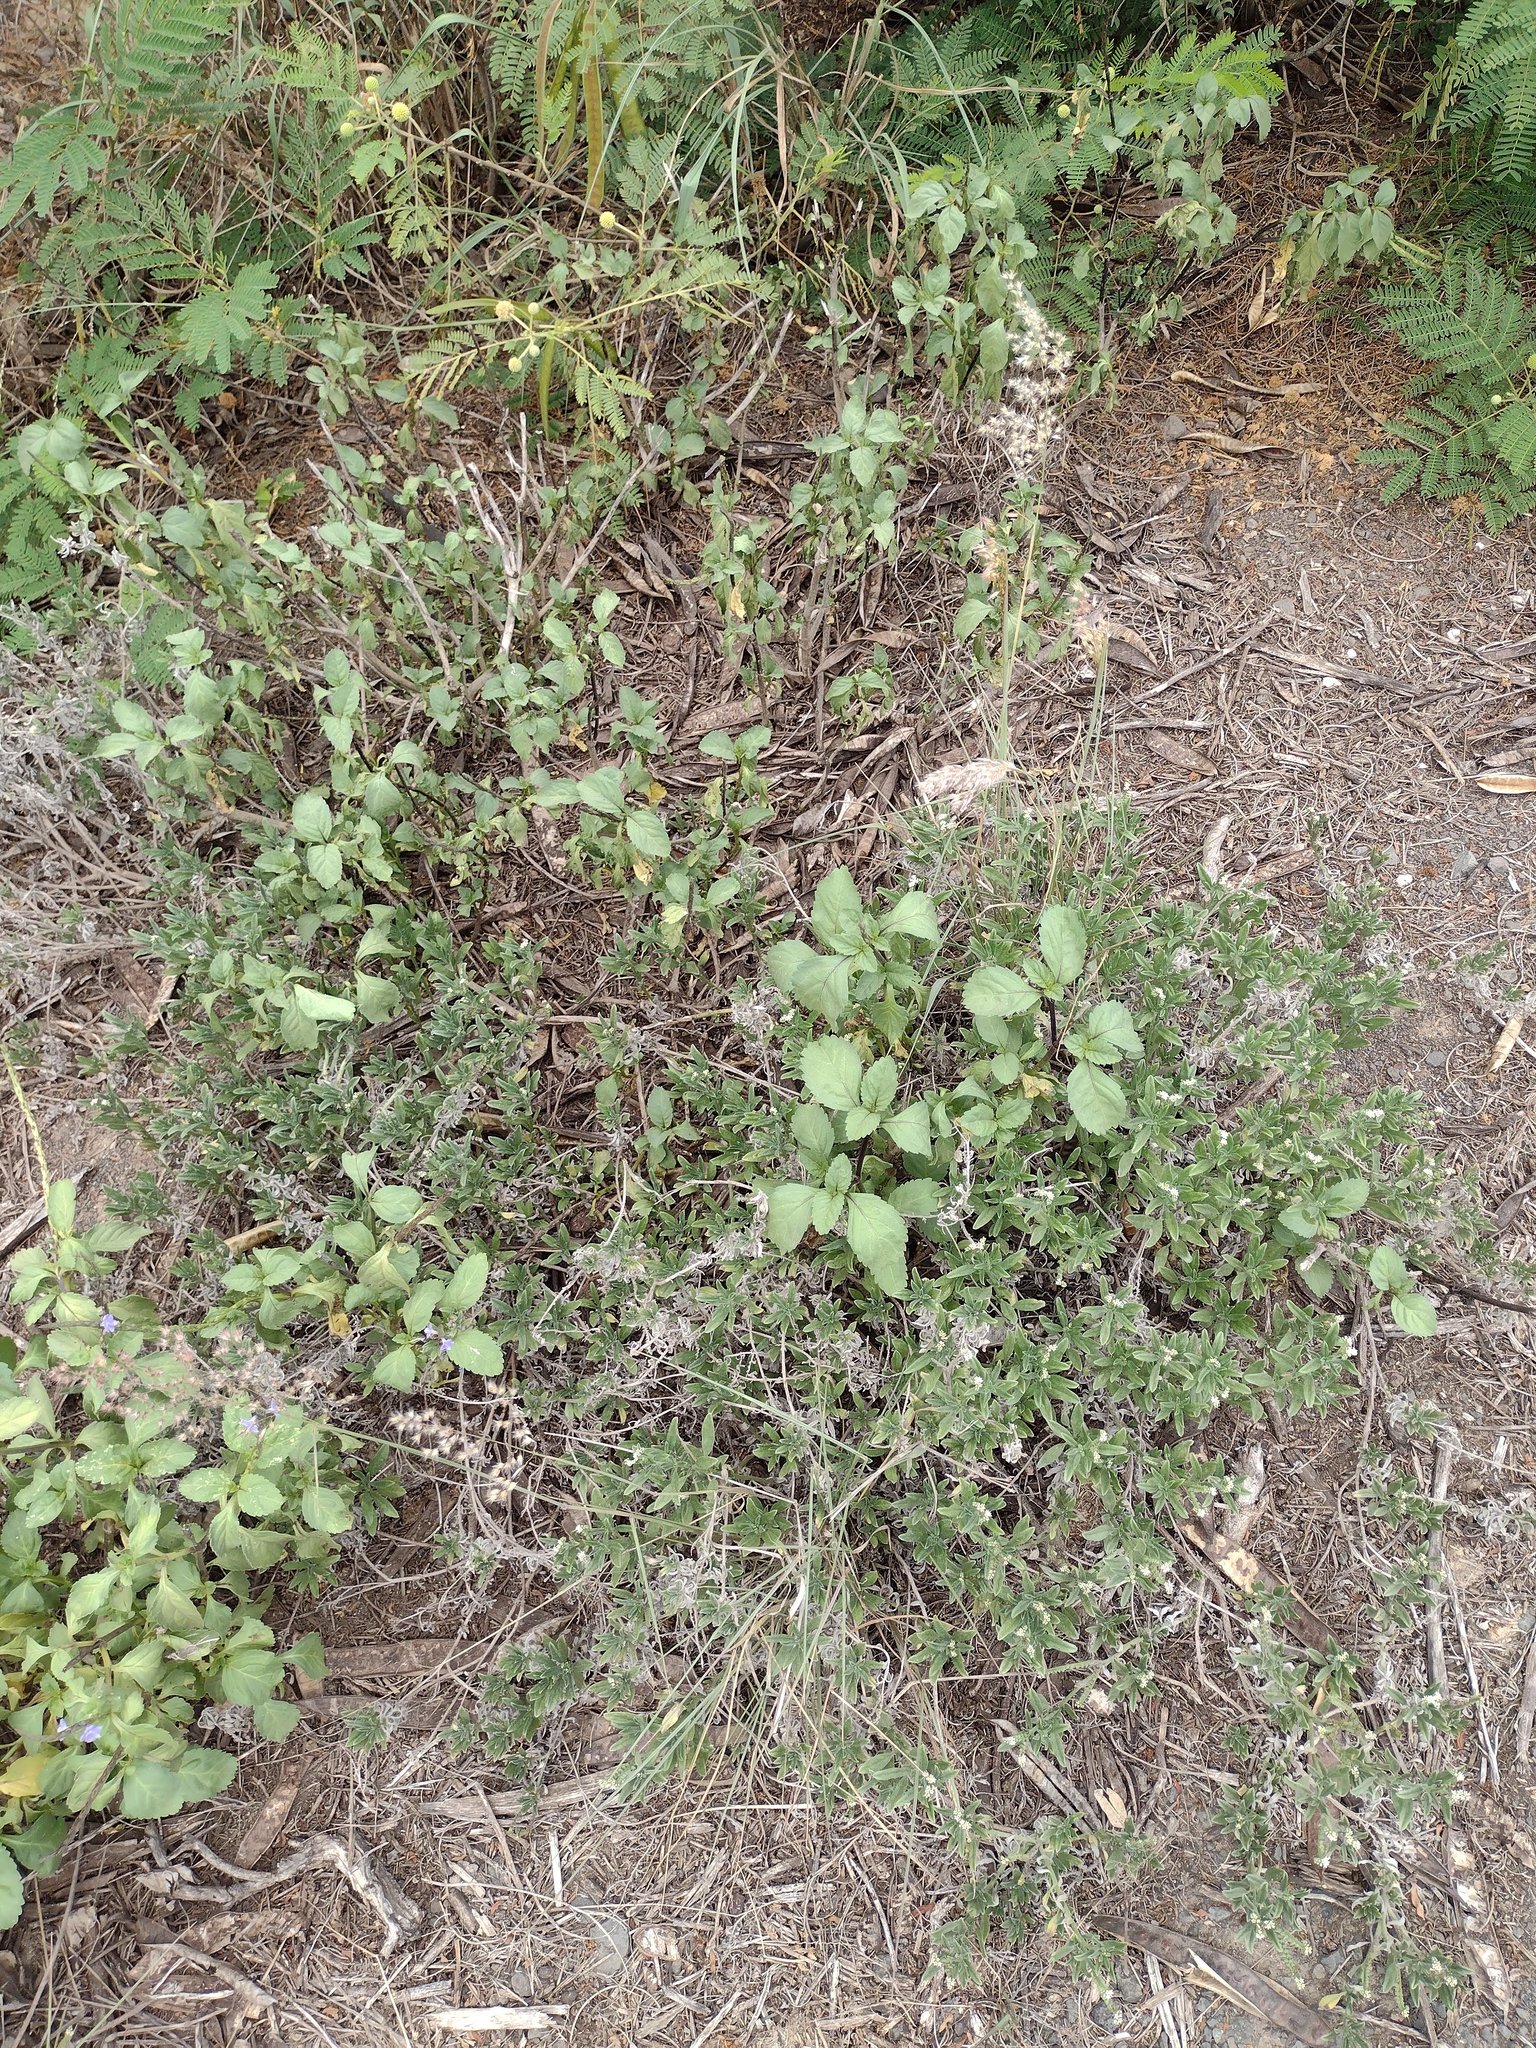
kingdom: Plantae
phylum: Tracheophyta
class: Liliopsida
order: Poales
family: Poaceae
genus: Melinis
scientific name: Melinis repens
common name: Rose natal grass
